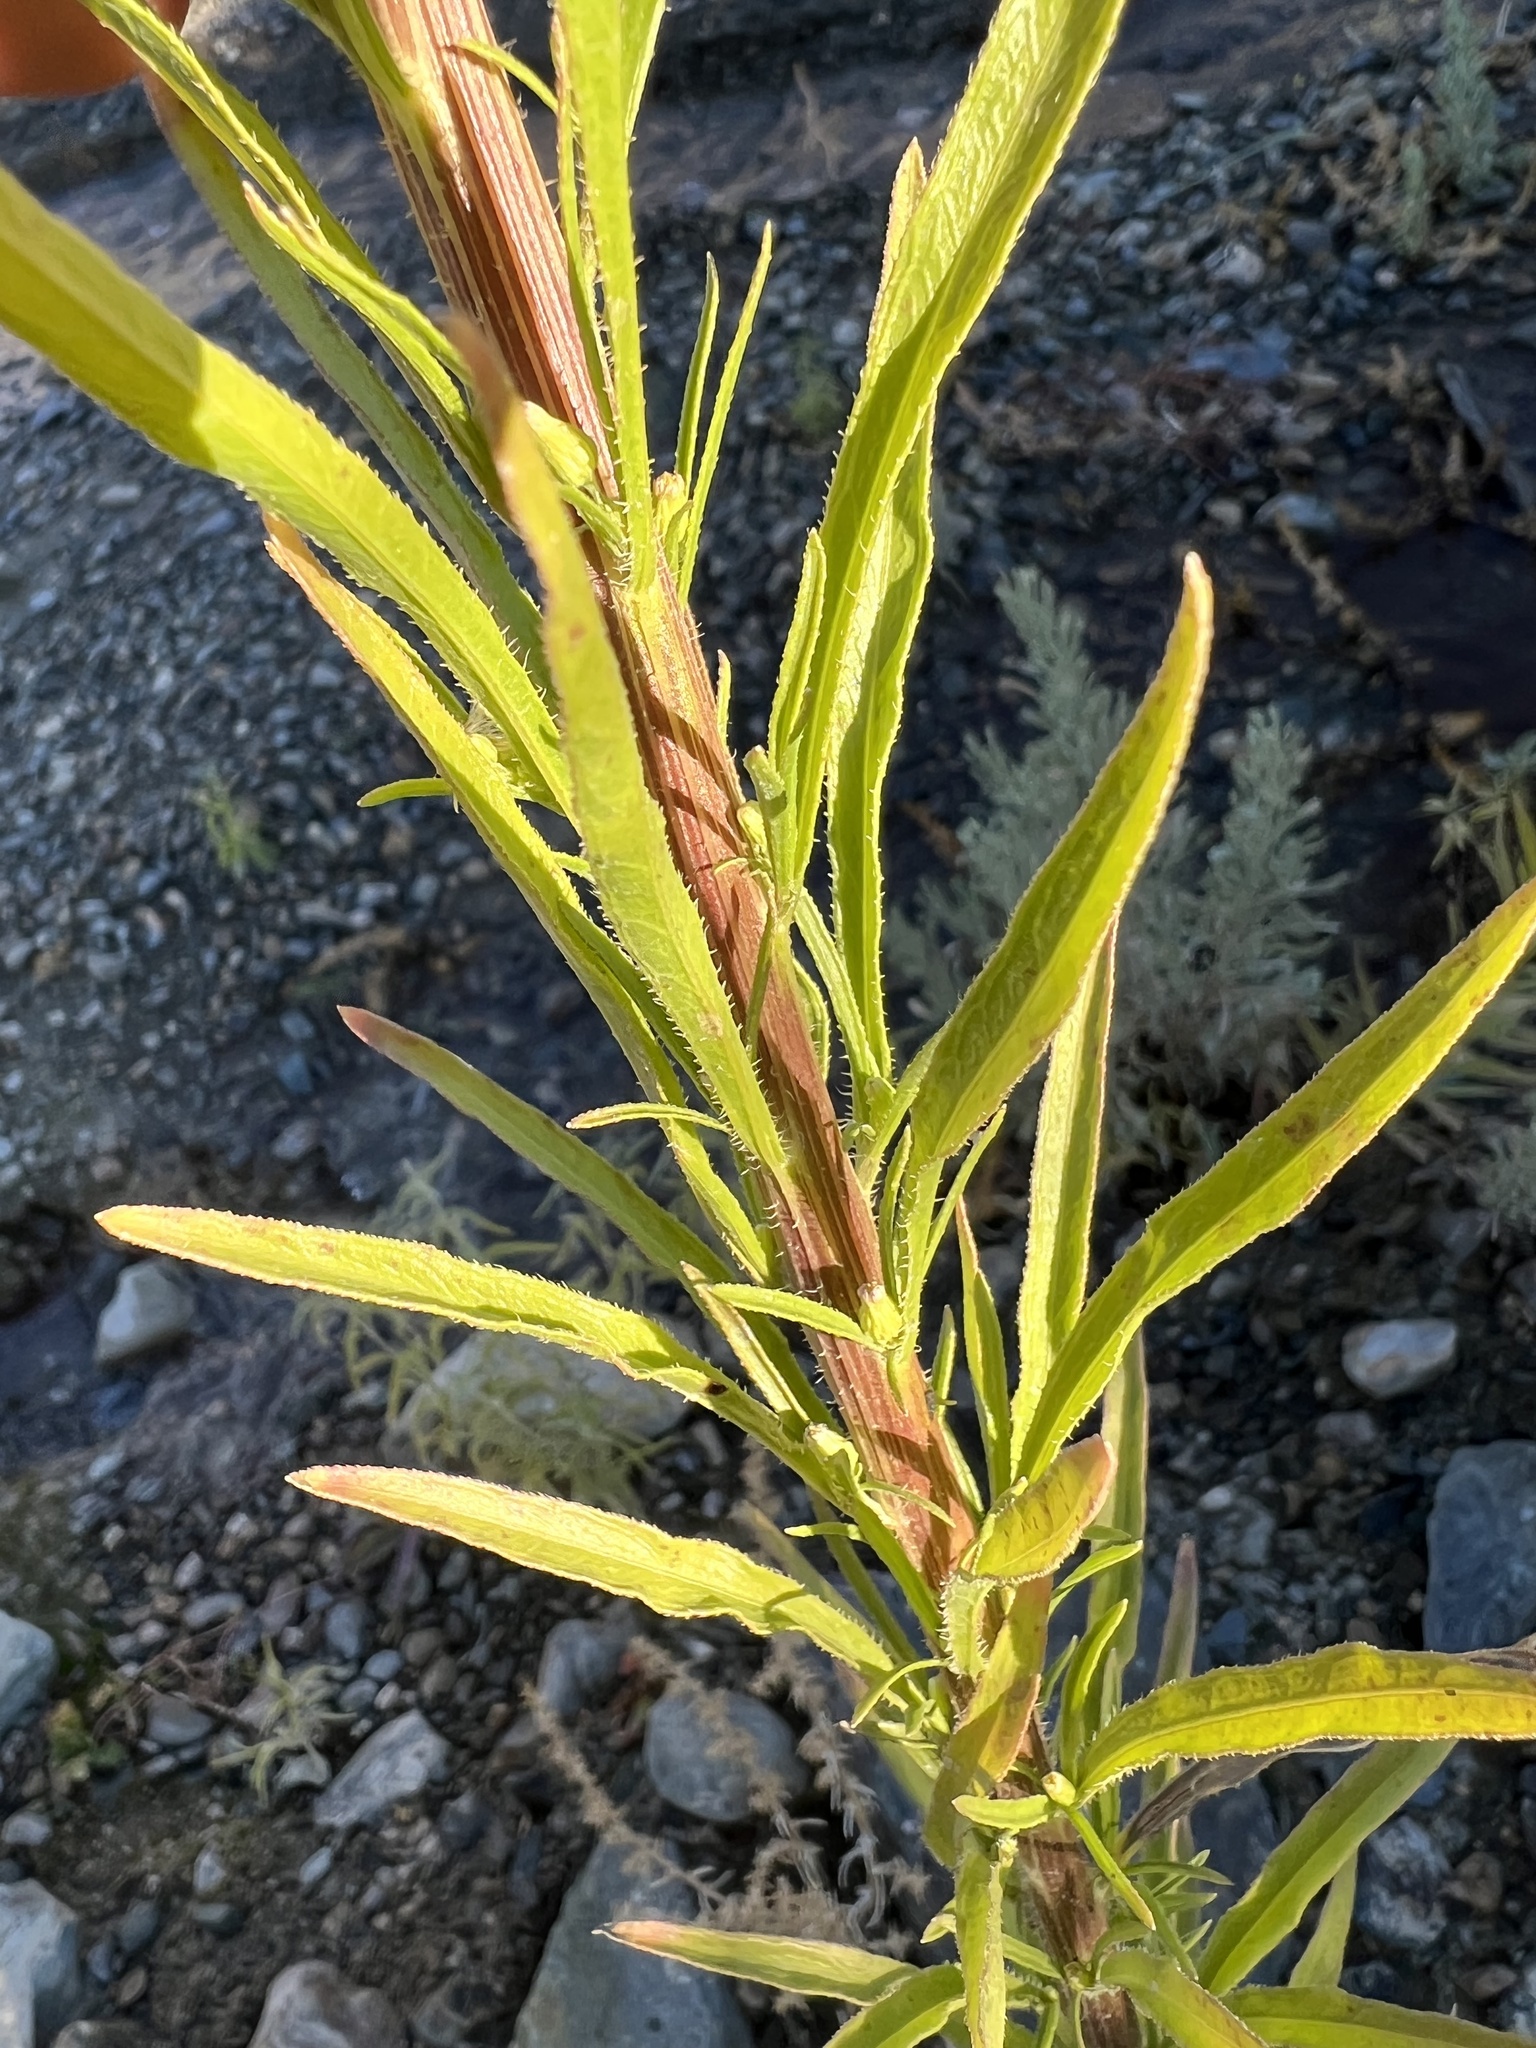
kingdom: Plantae
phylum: Tracheophyta
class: Magnoliopsida
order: Asterales
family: Asteraceae
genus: Erigeron
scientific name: Erigeron canadensis
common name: Canadian fleabane
